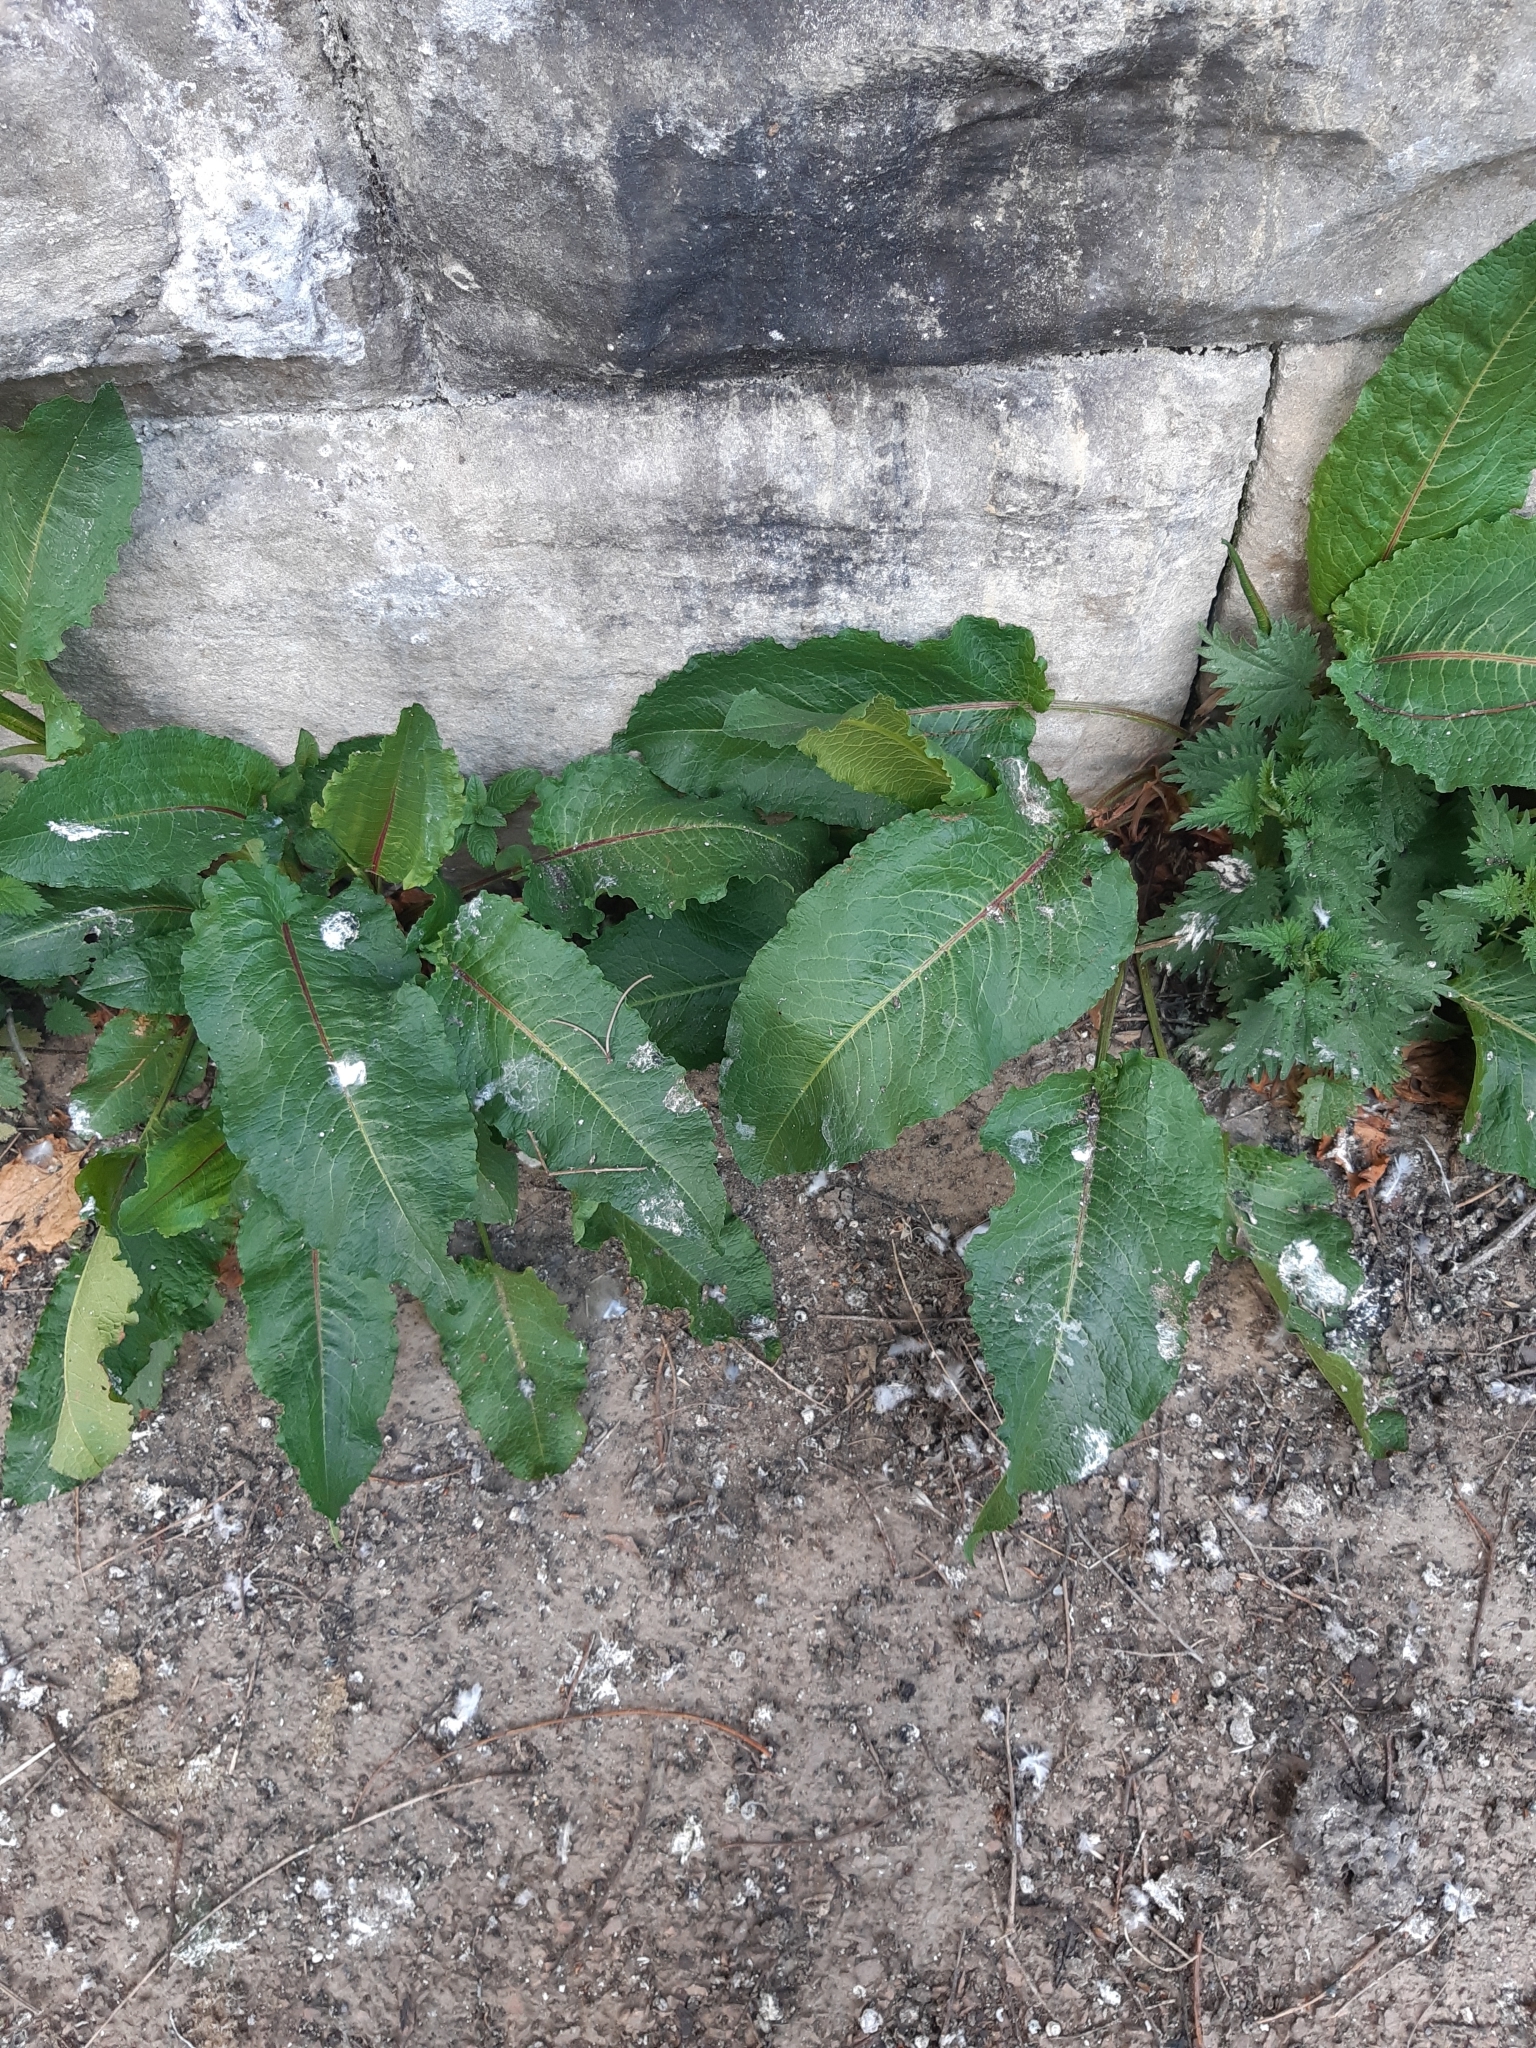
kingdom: Plantae
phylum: Tracheophyta
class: Magnoliopsida
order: Caryophyllales
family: Polygonaceae
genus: Rumex
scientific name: Rumex obtusifolius
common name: Bitter dock
